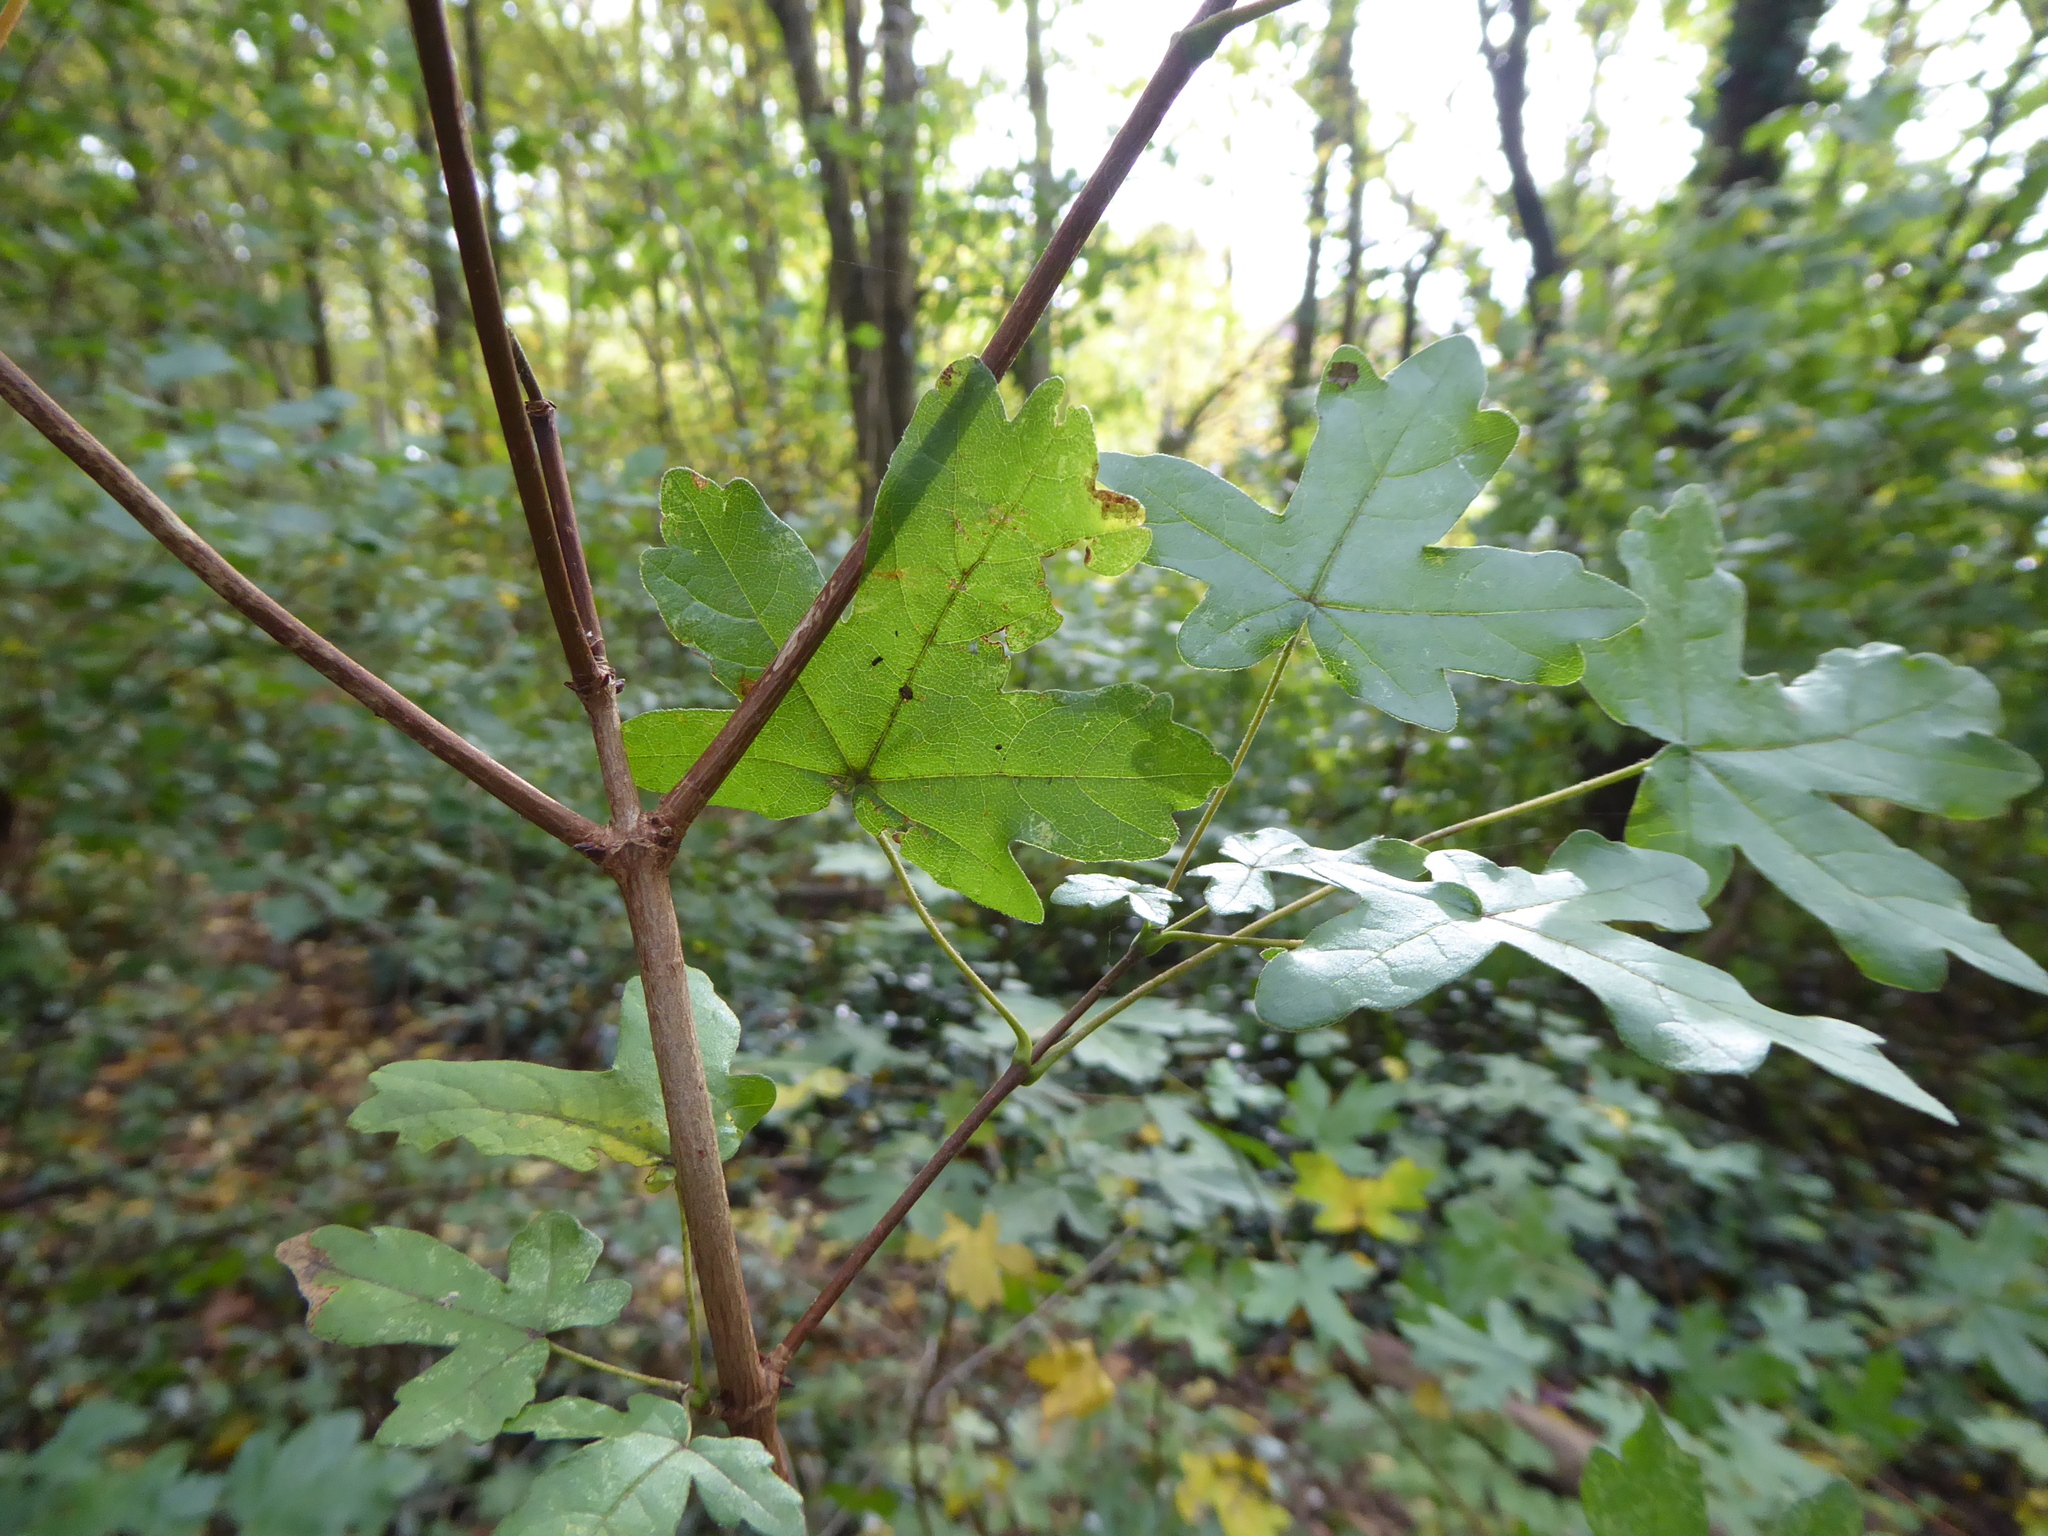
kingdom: Plantae
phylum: Tracheophyta
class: Magnoliopsida
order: Sapindales
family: Sapindaceae
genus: Acer
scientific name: Acer campestre
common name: Field maple
